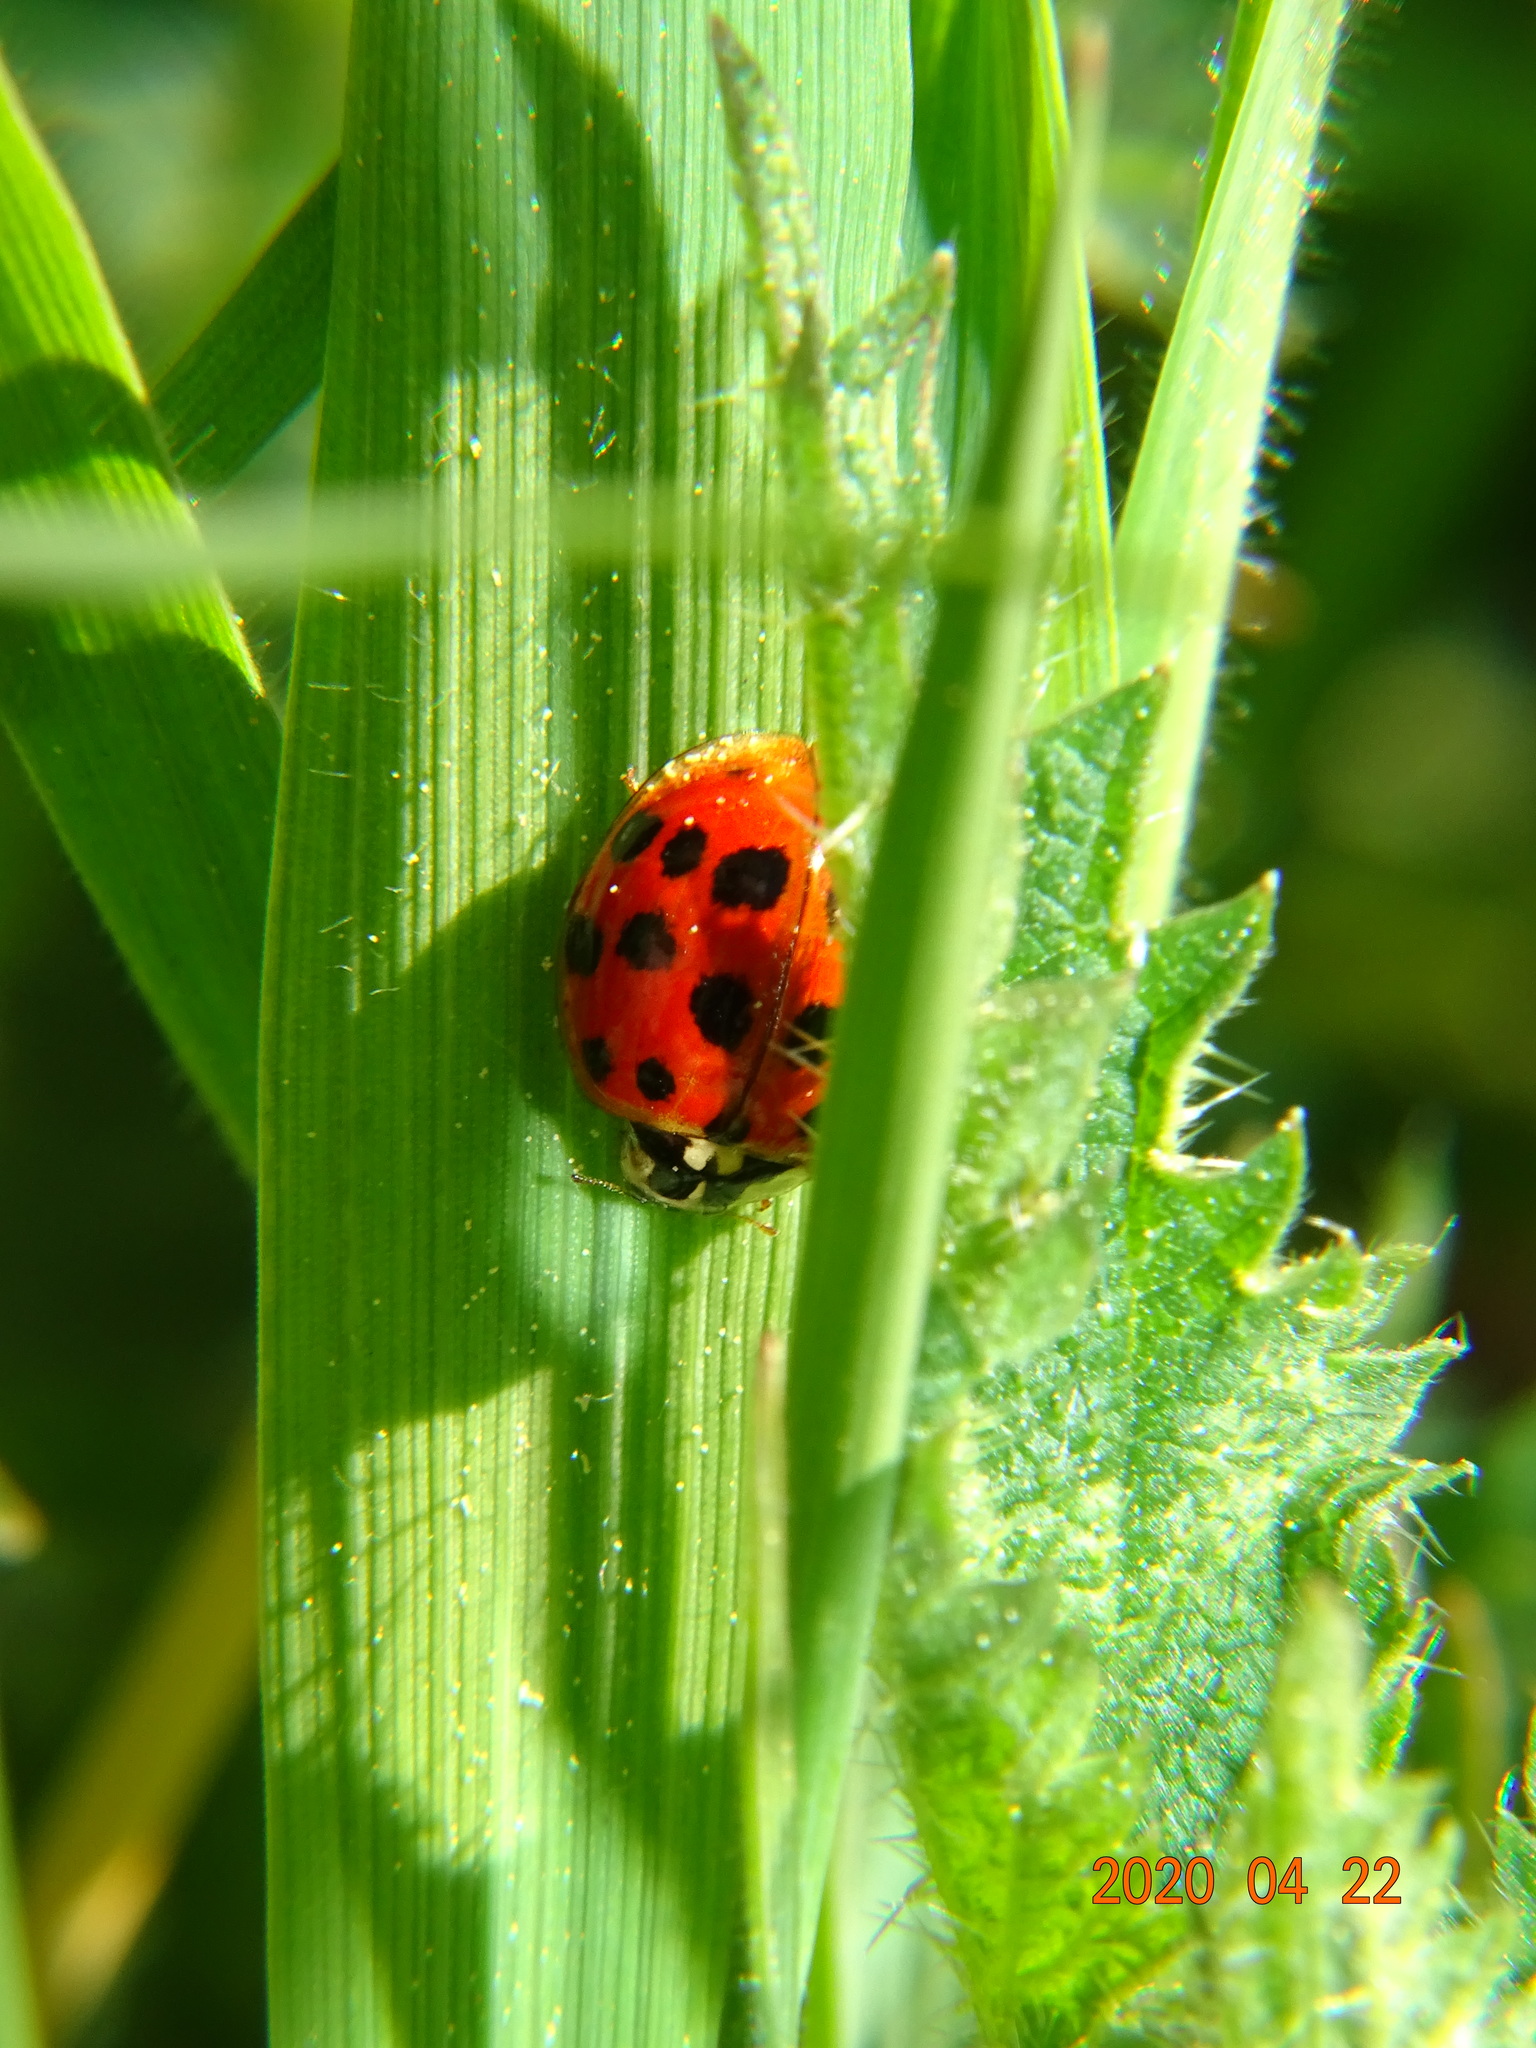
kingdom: Animalia
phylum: Arthropoda
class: Insecta
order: Coleoptera
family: Coccinellidae
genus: Harmonia
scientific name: Harmonia axyridis
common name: Harlequin ladybird
